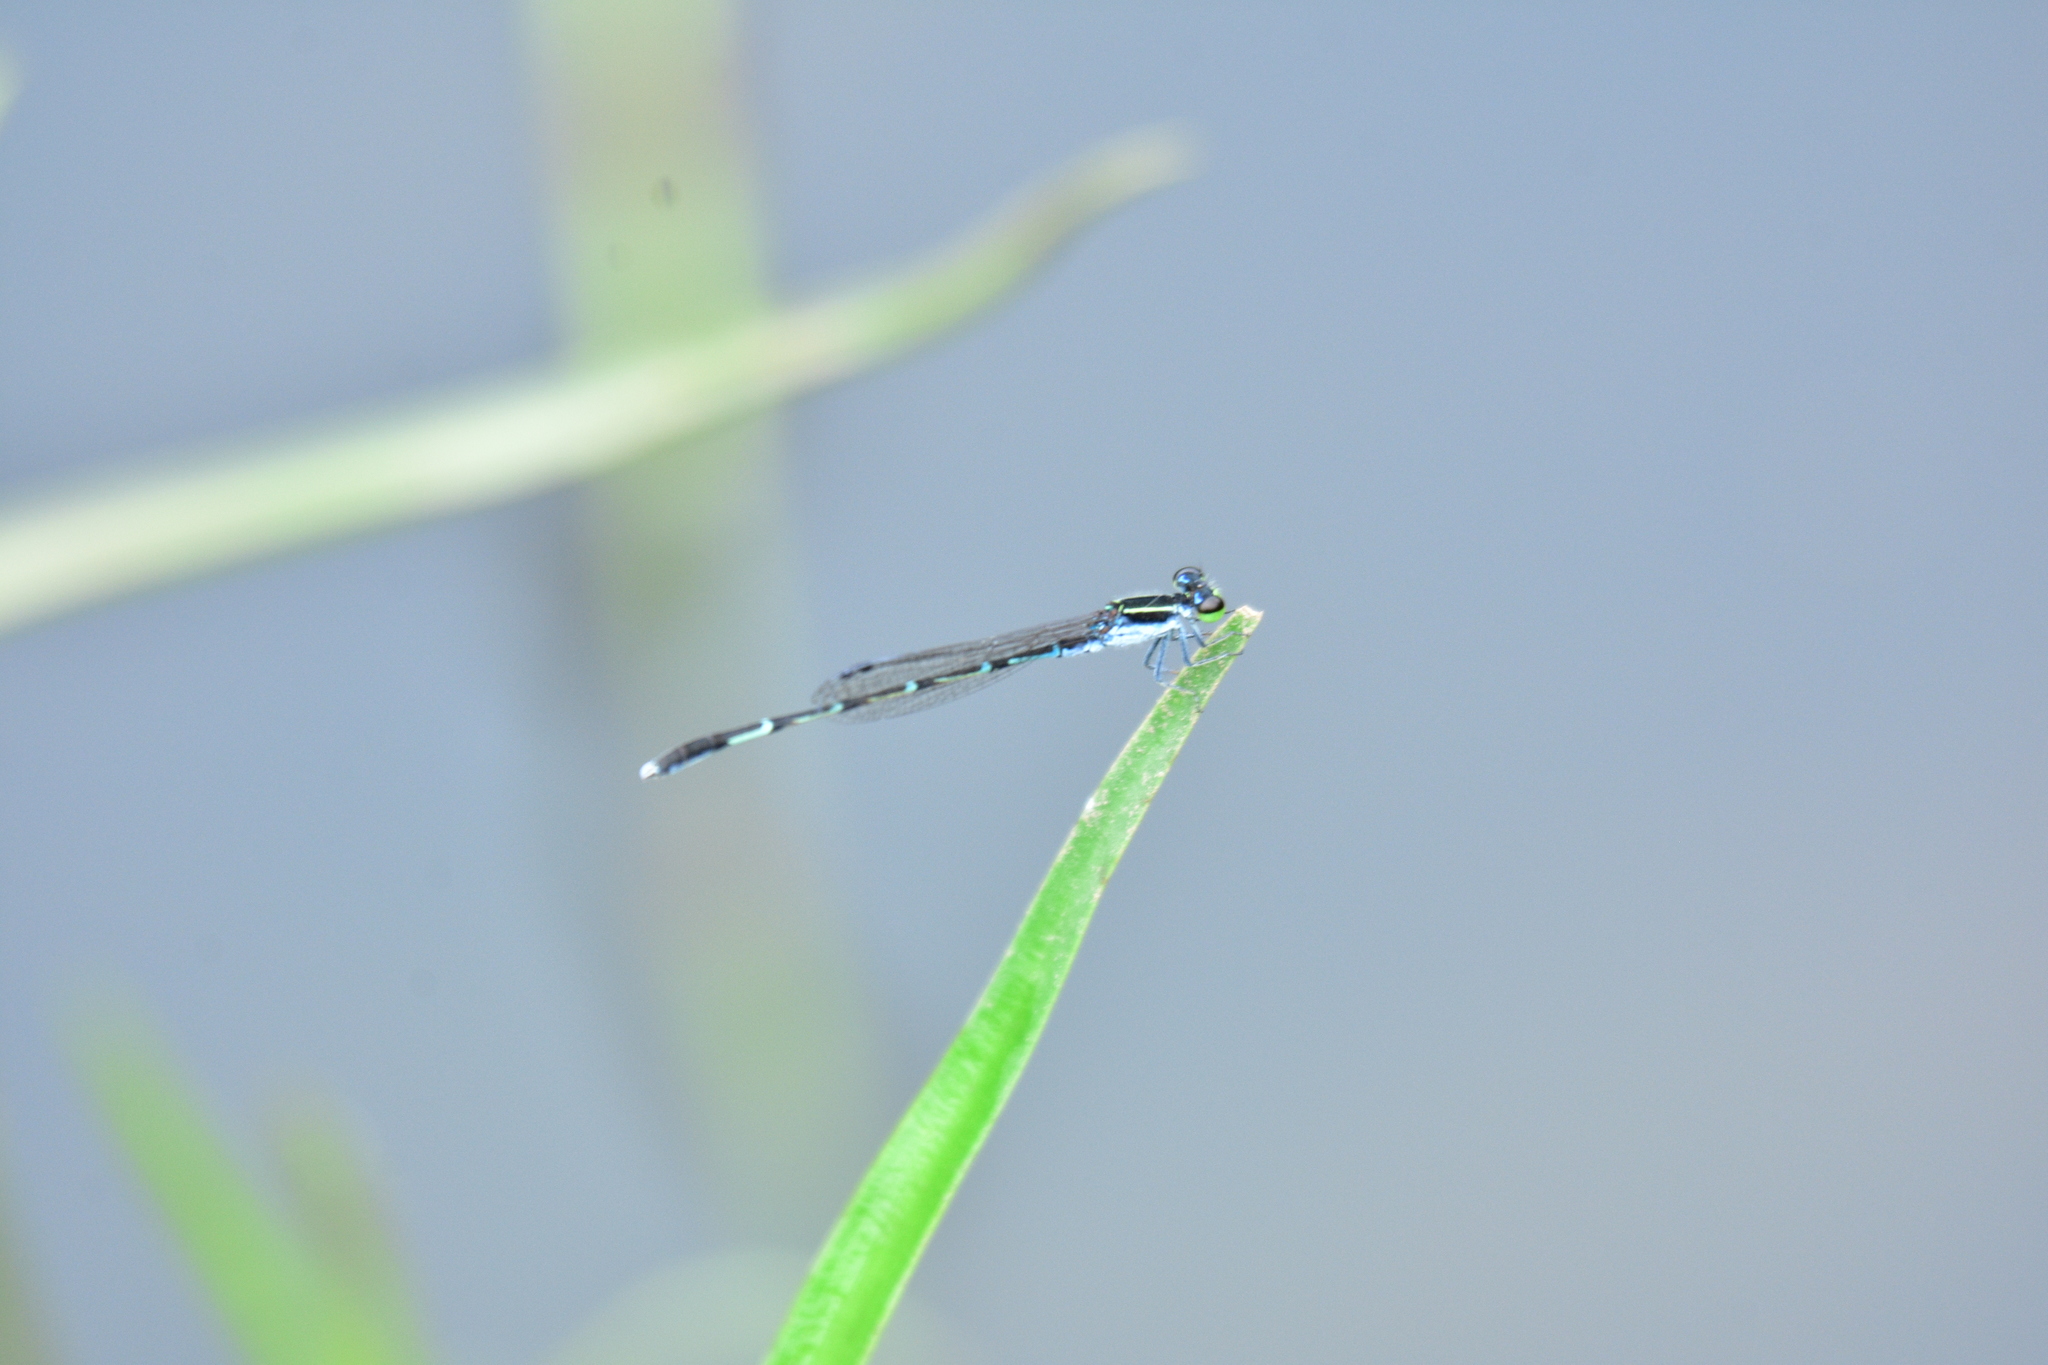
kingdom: Animalia
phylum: Arthropoda
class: Insecta
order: Odonata
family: Coenagrionidae
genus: Agriocnemis
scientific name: Agriocnemis splendidissima
